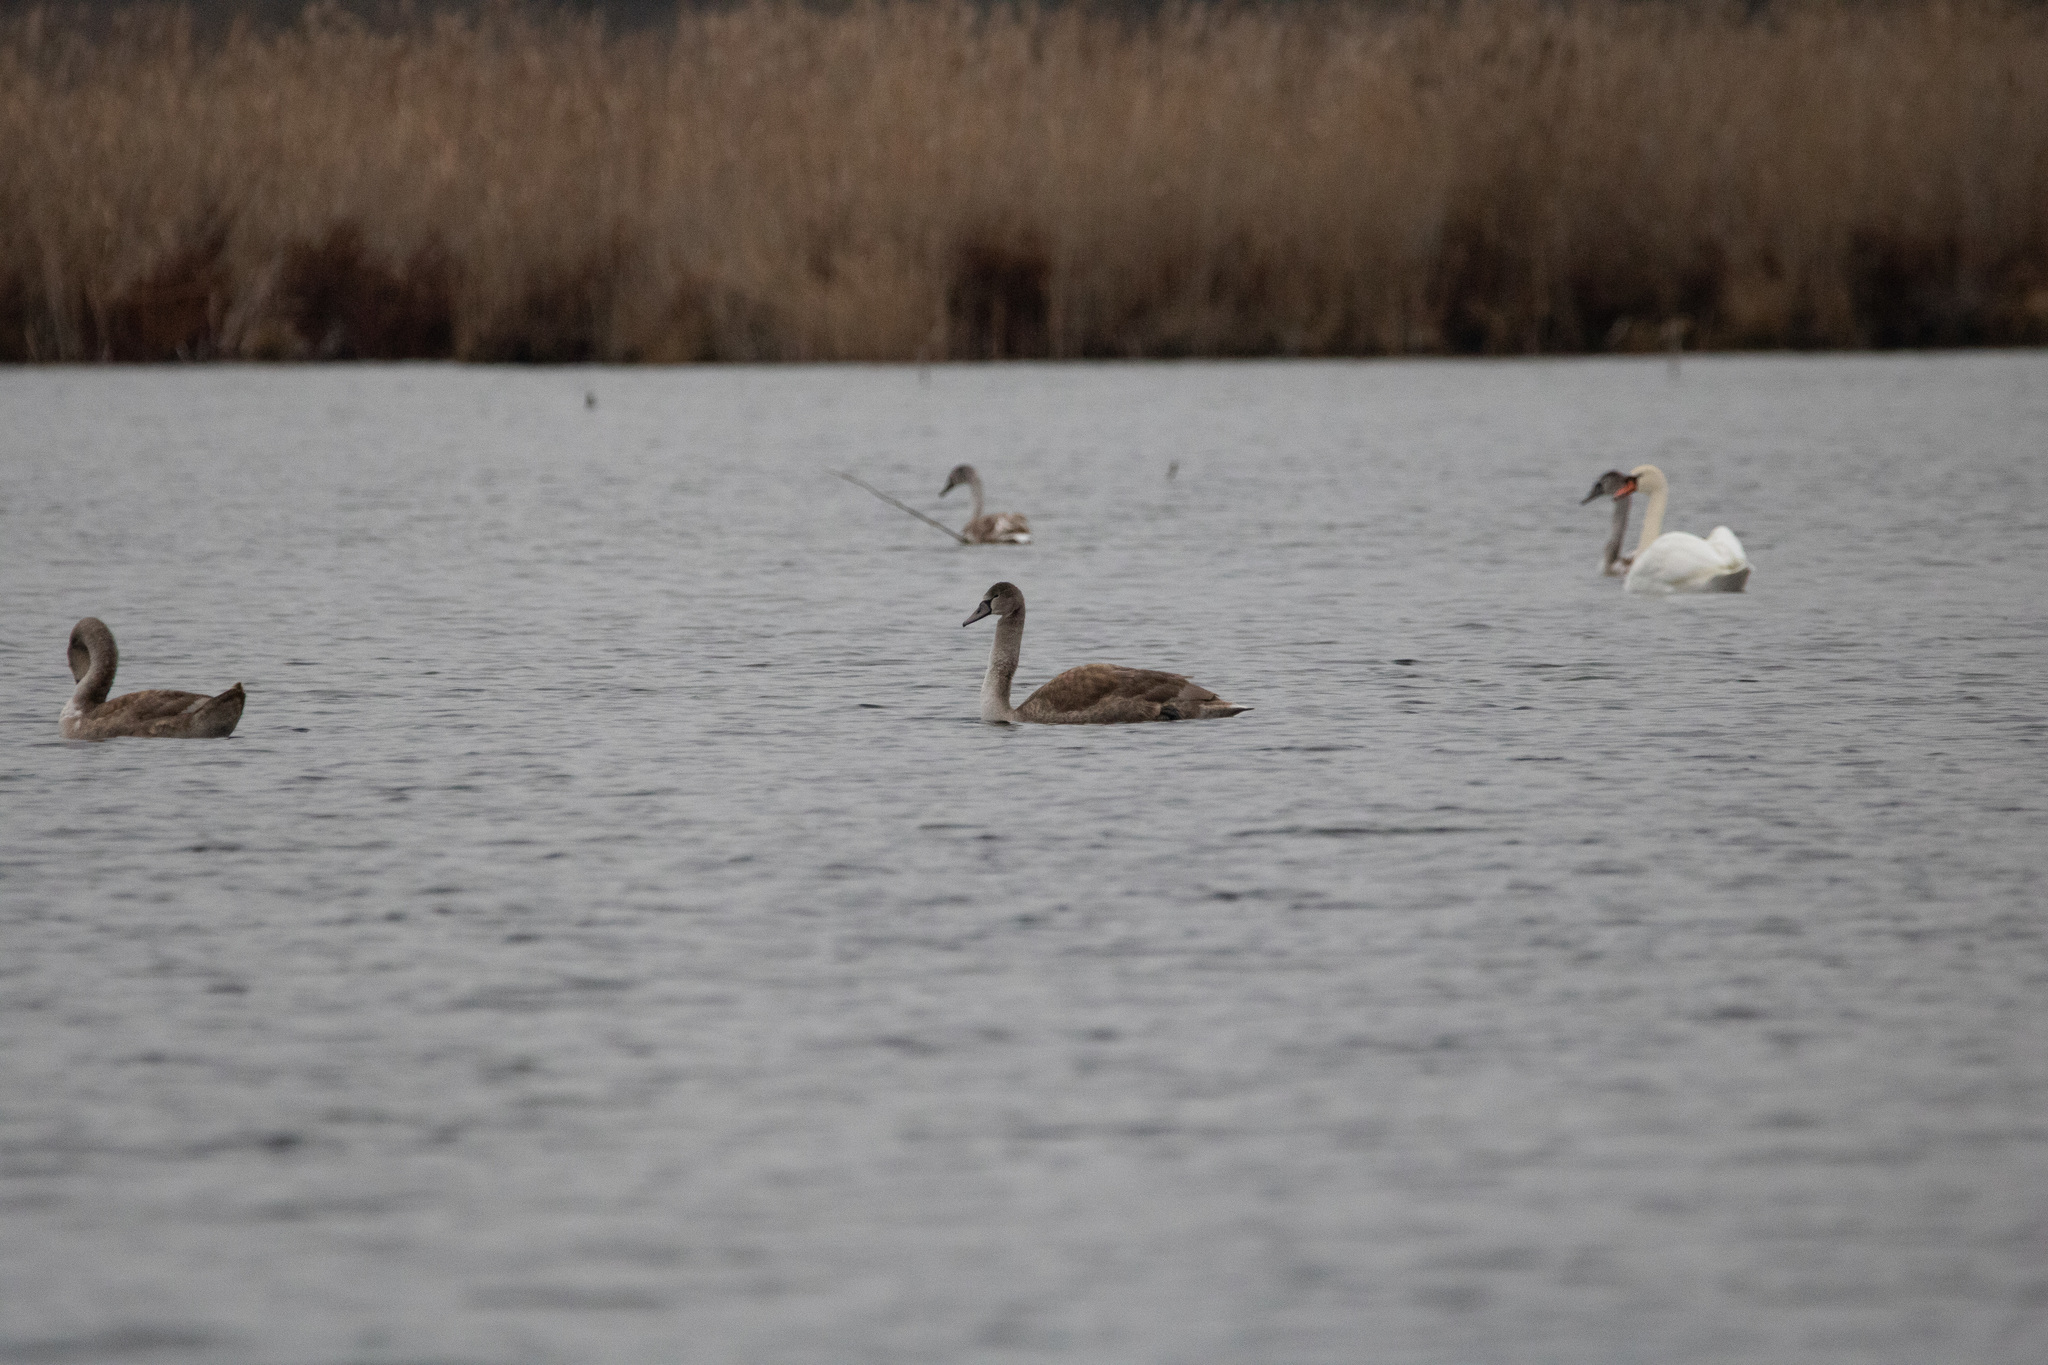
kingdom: Animalia
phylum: Chordata
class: Aves
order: Anseriformes
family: Anatidae
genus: Cygnus
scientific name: Cygnus olor
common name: Mute swan
